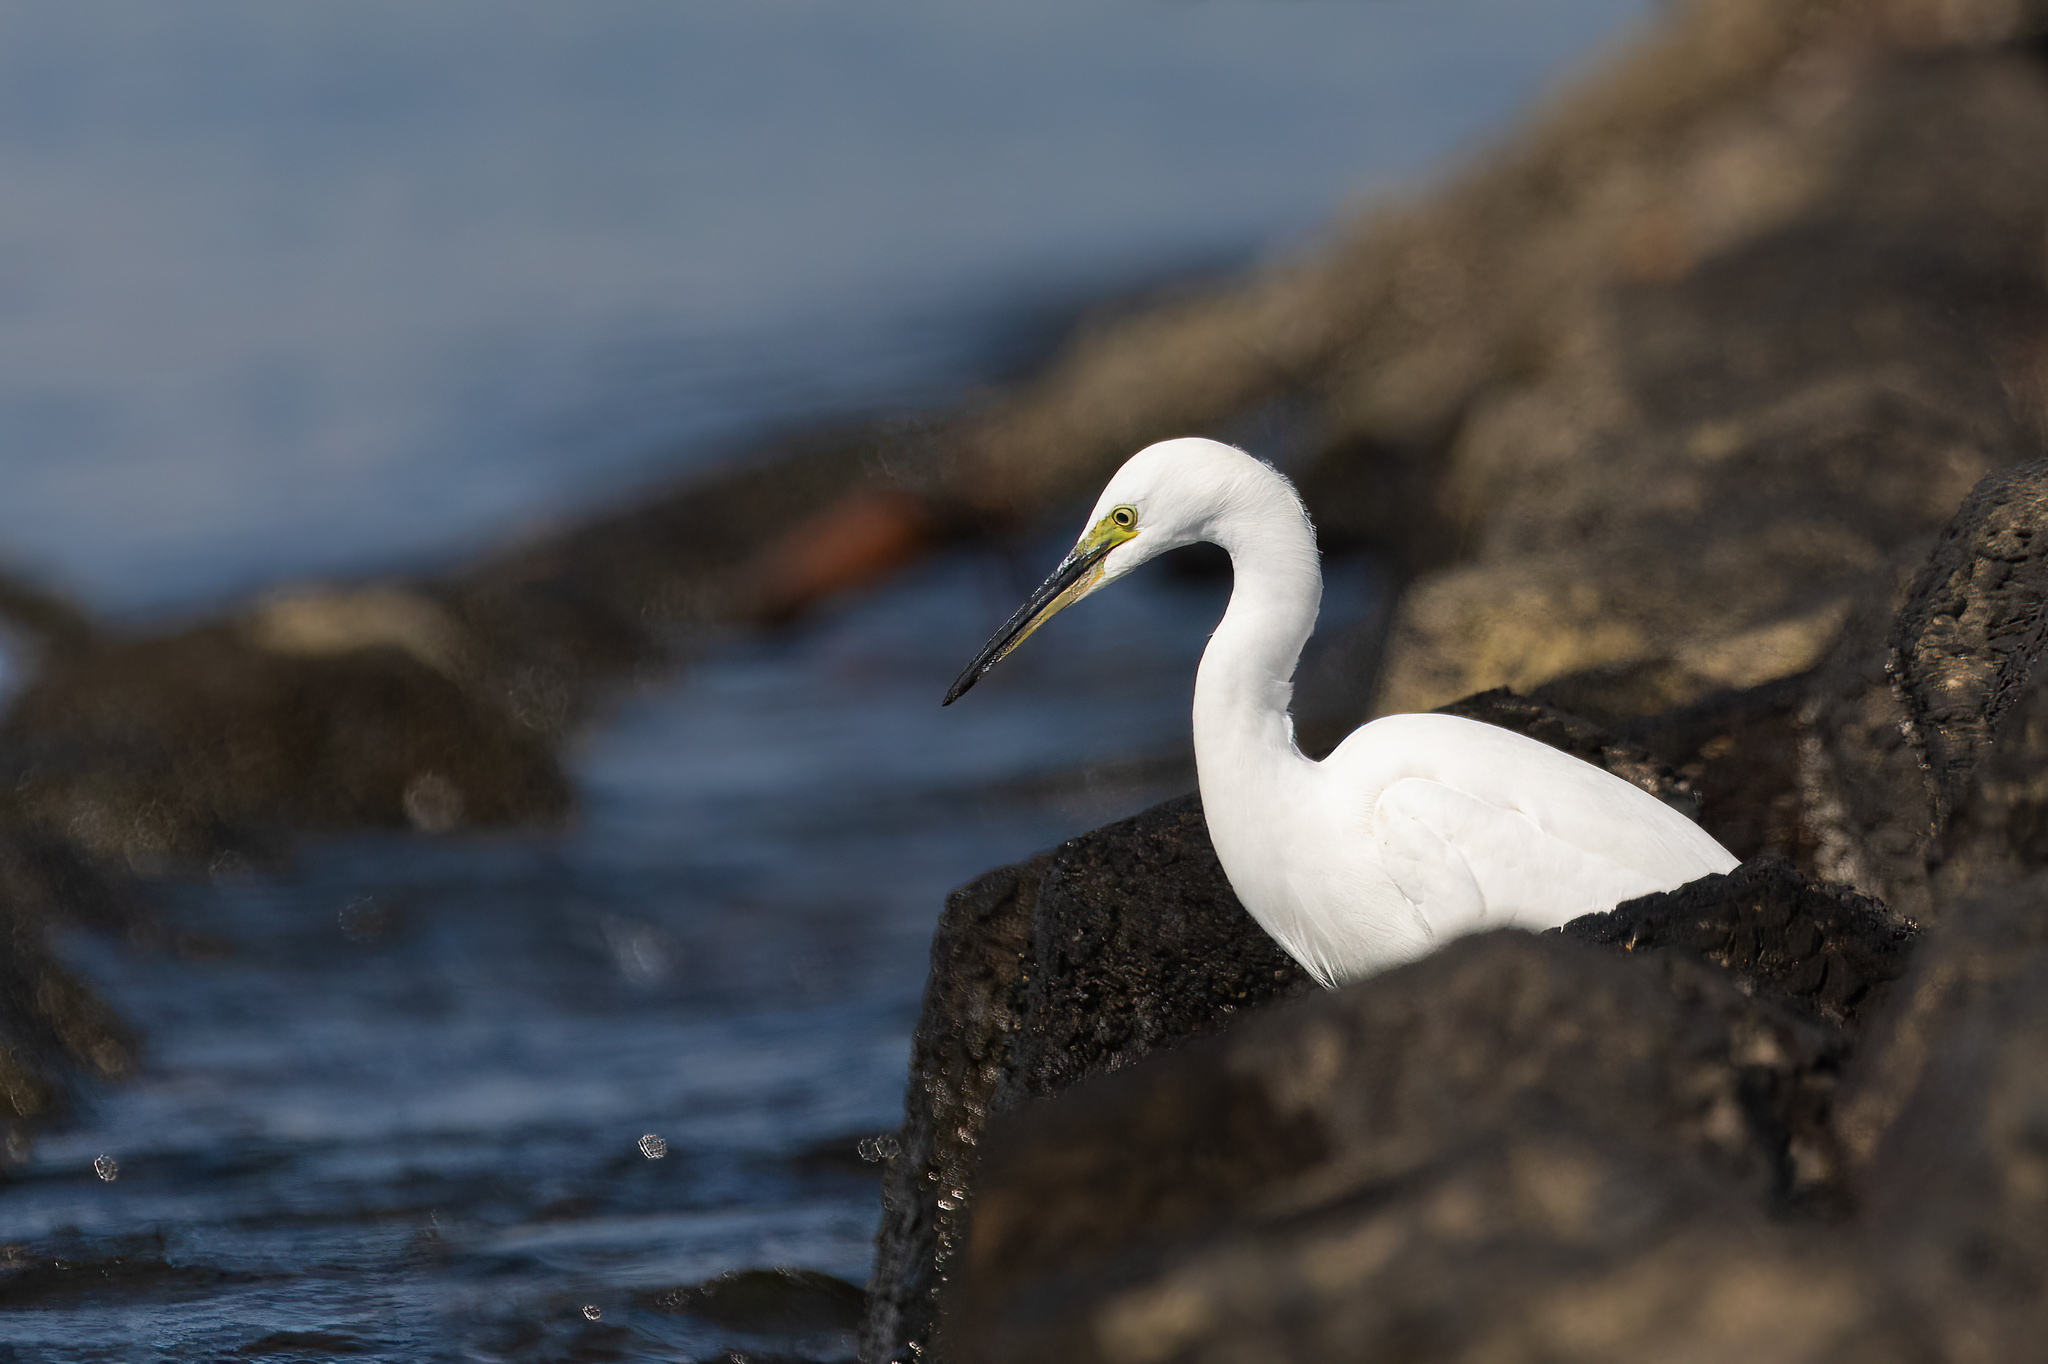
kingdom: Animalia
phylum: Chordata
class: Aves
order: Pelecaniformes
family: Ardeidae
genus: Egretta
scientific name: Egretta garzetta
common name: Little egret
